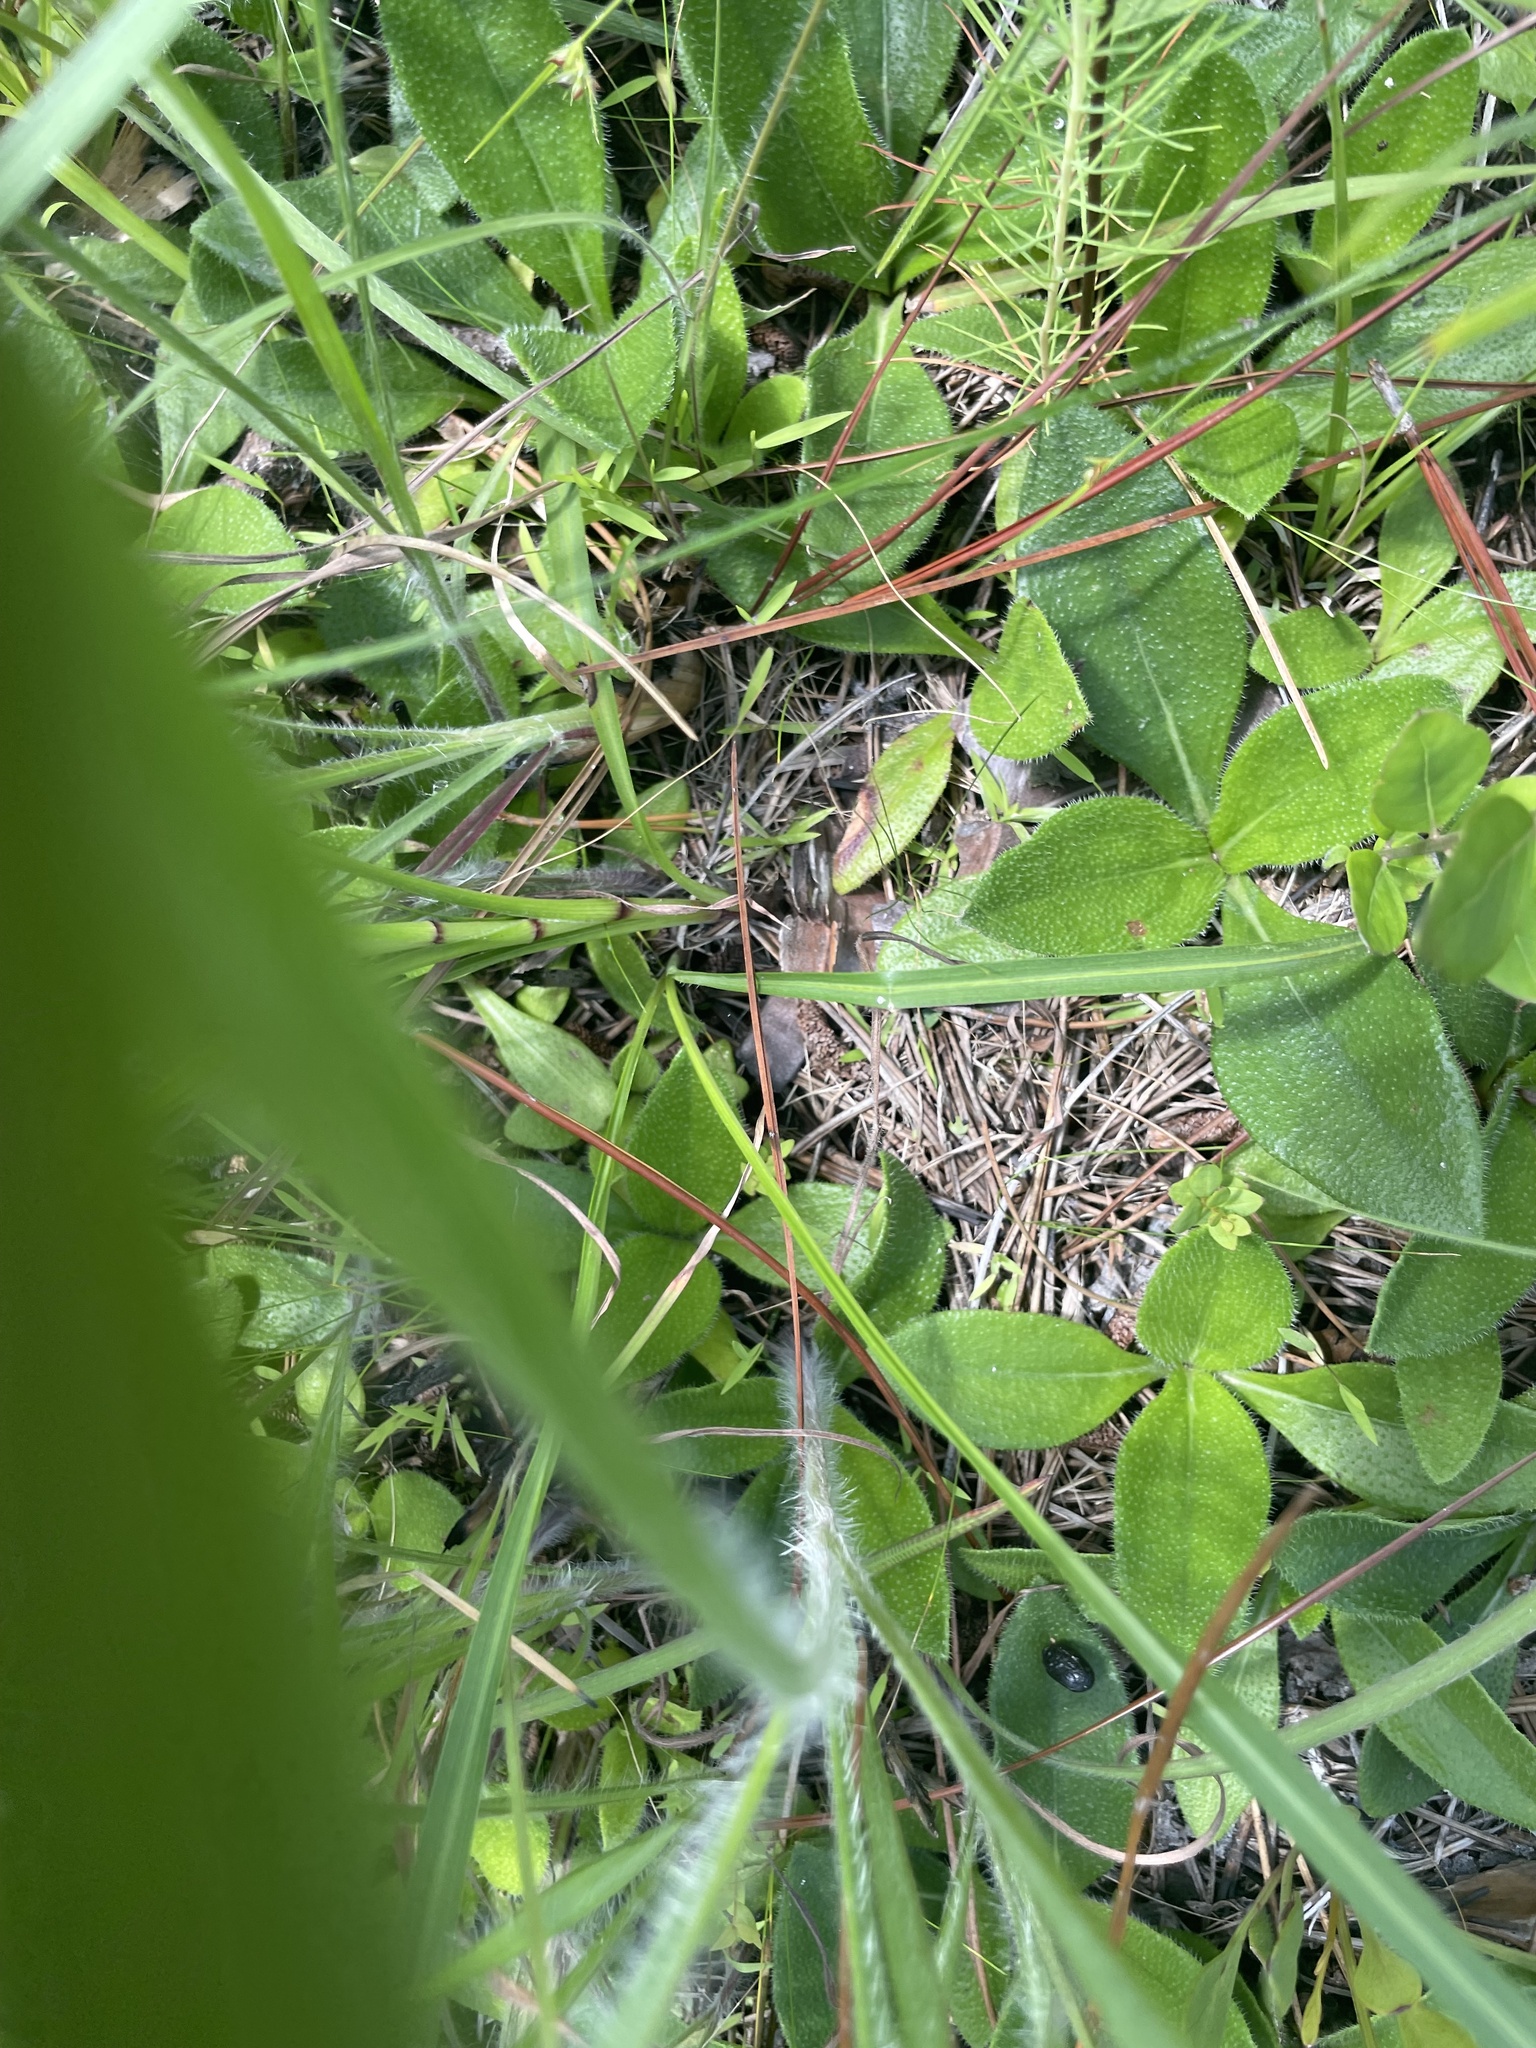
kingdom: Plantae
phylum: Tracheophyta
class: Magnoliopsida
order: Asterales
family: Asteraceae
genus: Liatris
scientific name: Liatris spicata
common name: Florist gayfeather
